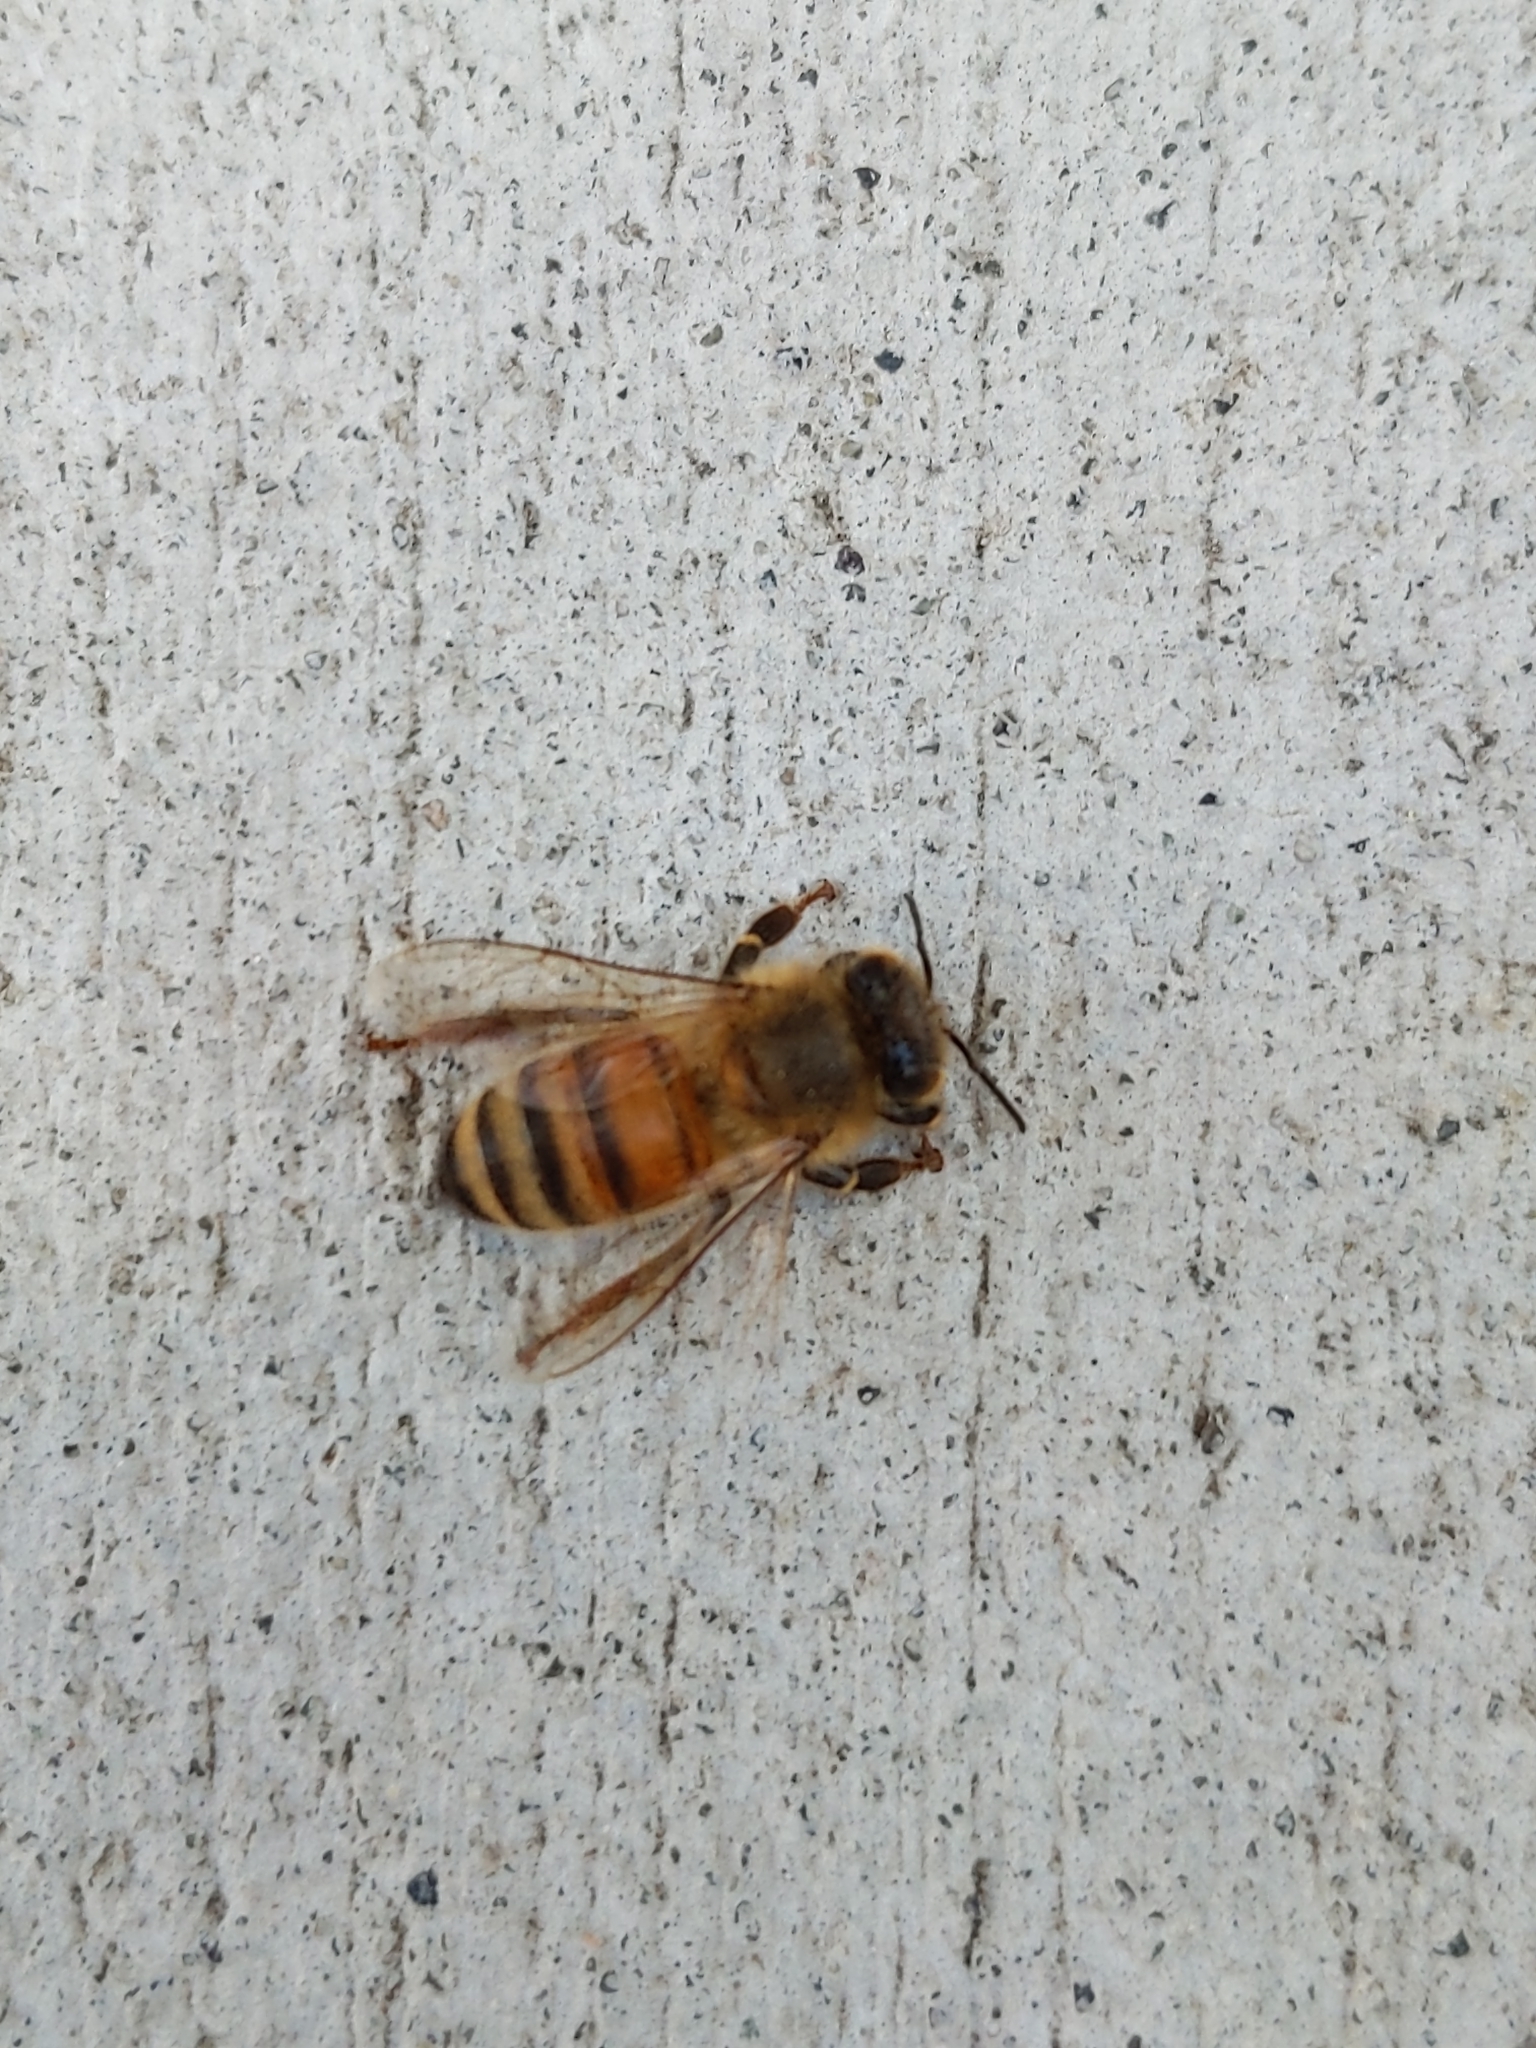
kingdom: Animalia
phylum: Arthropoda
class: Insecta
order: Hymenoptera
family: Apidae
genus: Apis
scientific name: Apis mellifera
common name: Honey bee
